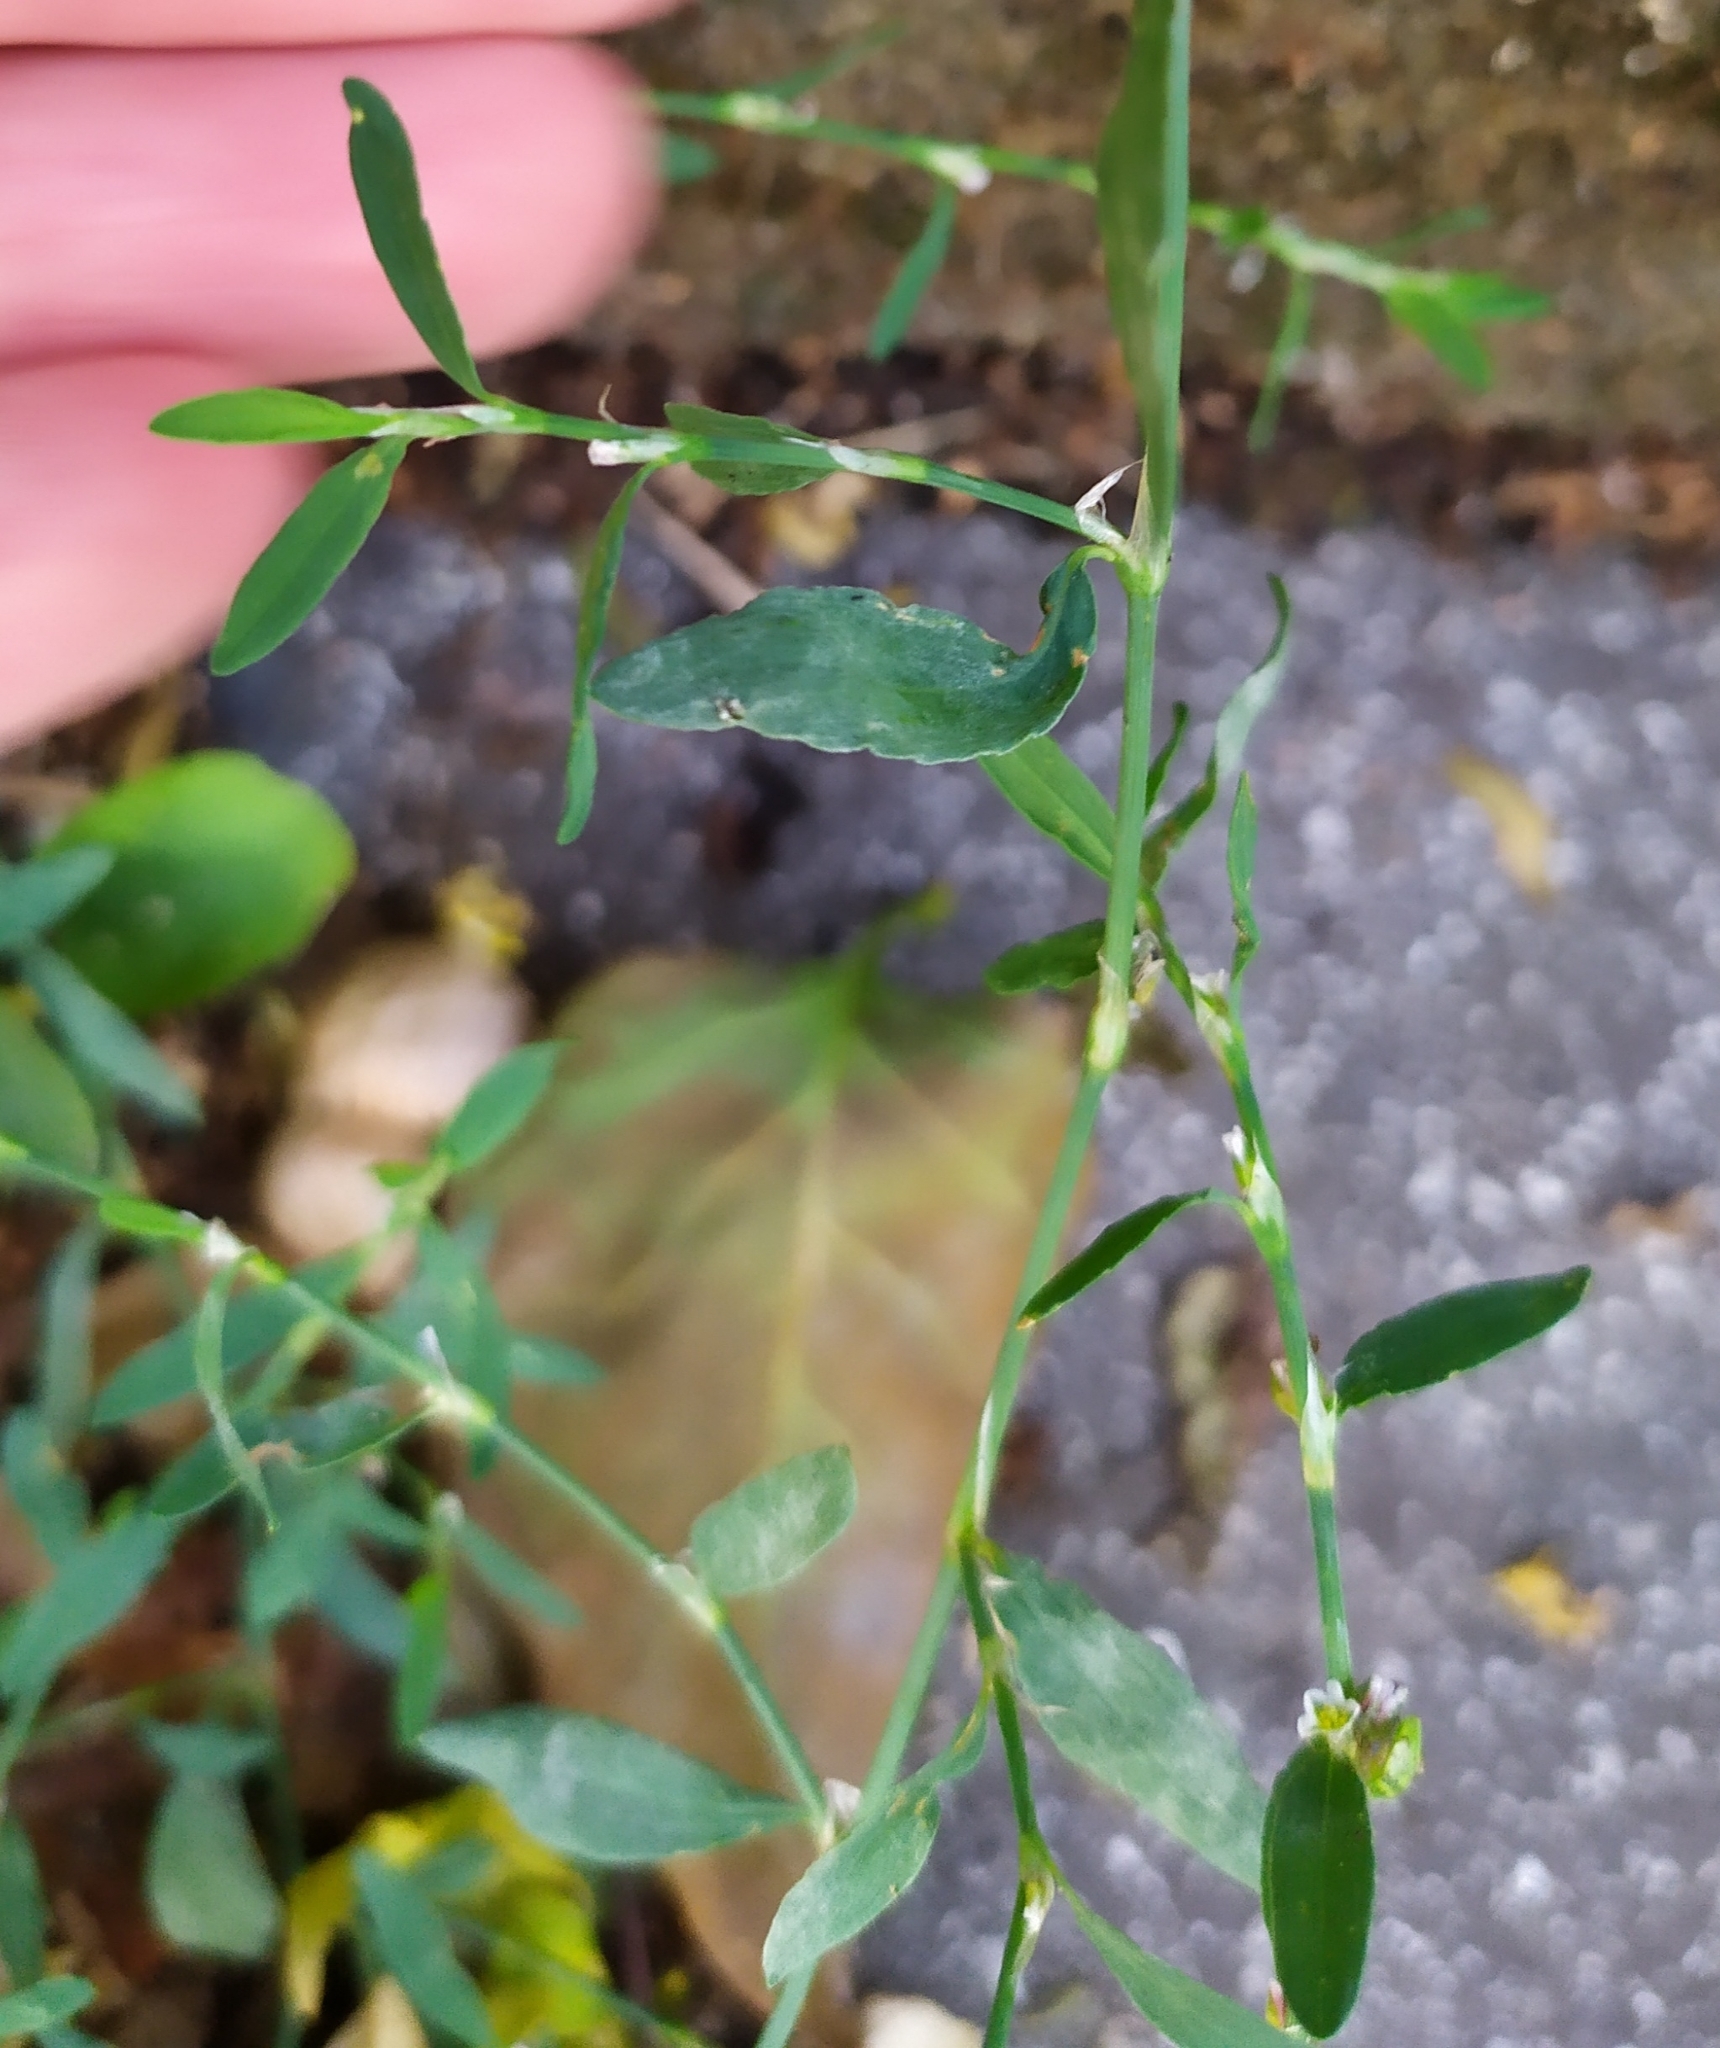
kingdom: Plantae
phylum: Tracheophyta
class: Magnoliopsida
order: Caryophyllales
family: Polygonaceae
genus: Polygonum
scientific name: Polygonum aviculare
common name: Prostrate knotweed
